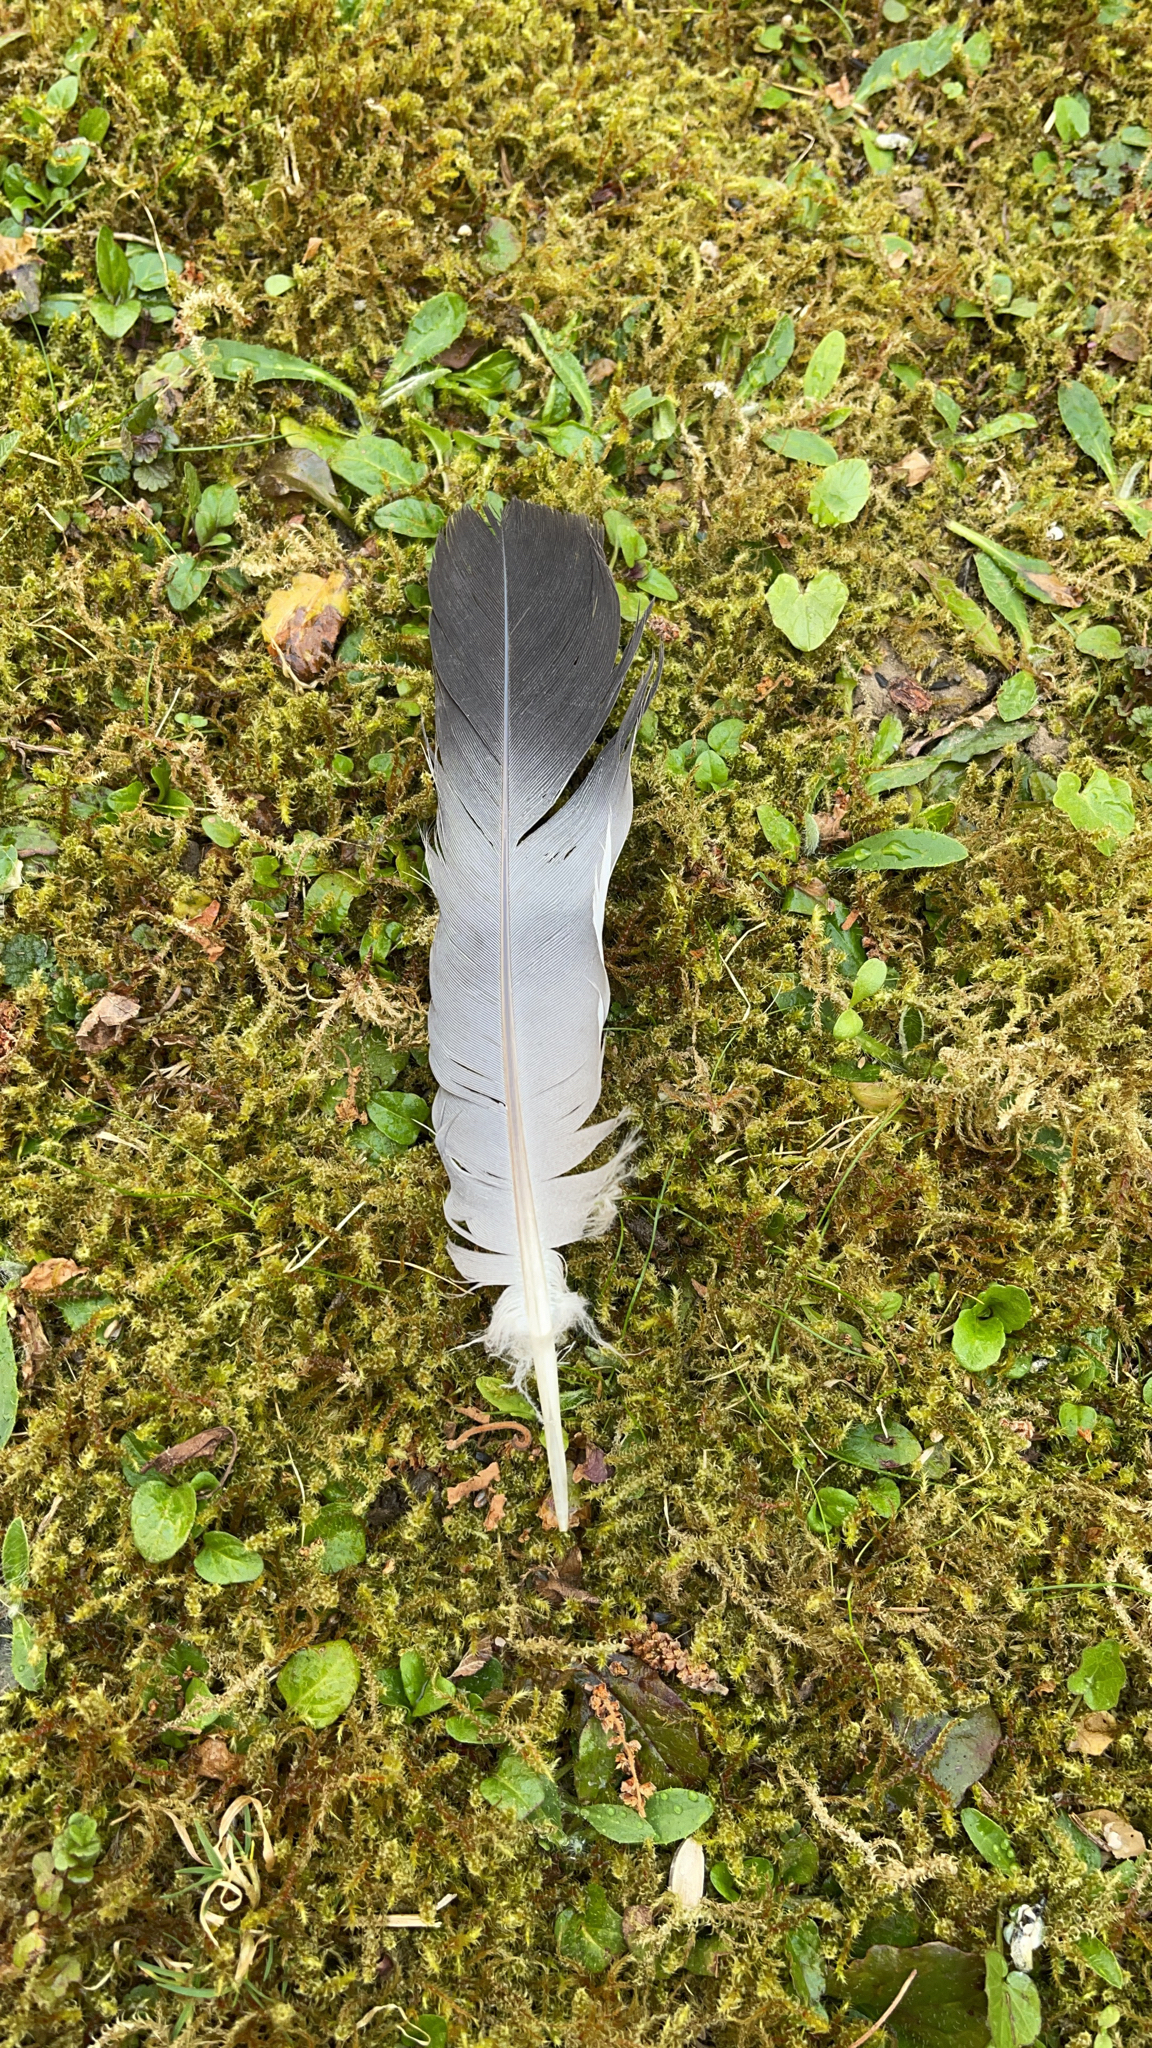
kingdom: Animalia
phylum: Chordata
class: Aves
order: Columbiformes
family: Columbidae
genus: Columba
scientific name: Columba palumbus
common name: Common wood pigeon
